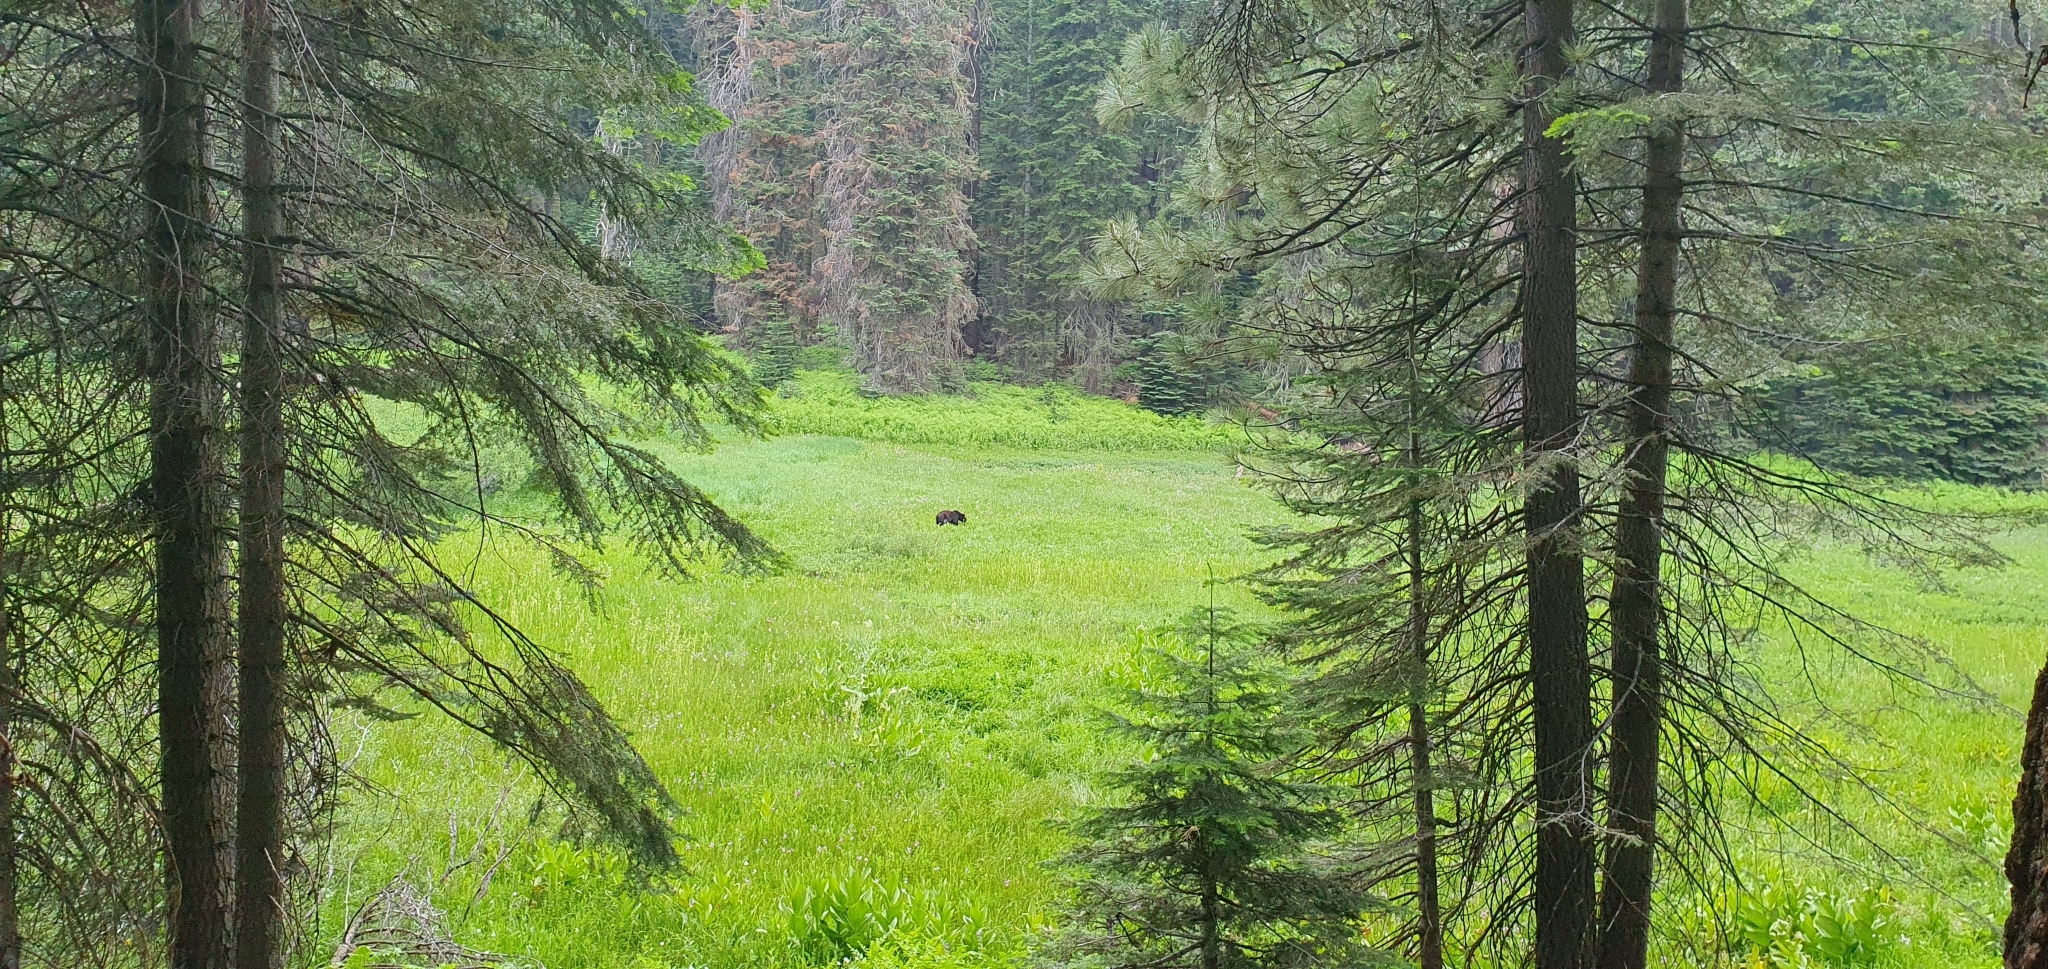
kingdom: Animalia
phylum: Chordata
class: Mammalia
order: Carnivora
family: Ursidae
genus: Ursus
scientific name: Ursus americanus
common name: American black bear
